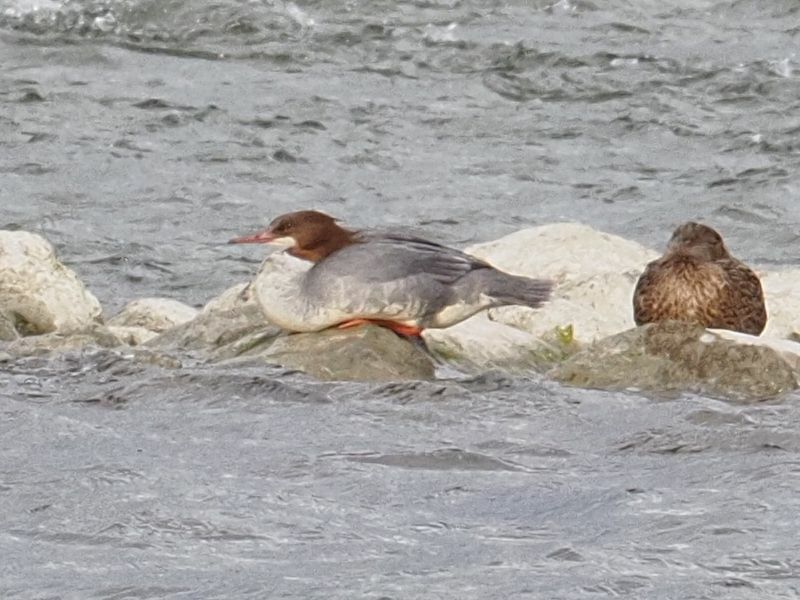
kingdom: Animalia
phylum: Chordata
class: Aves
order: Anseriformes
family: Anatidae
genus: Mergus
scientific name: Mergus merganser
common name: Common merganser
